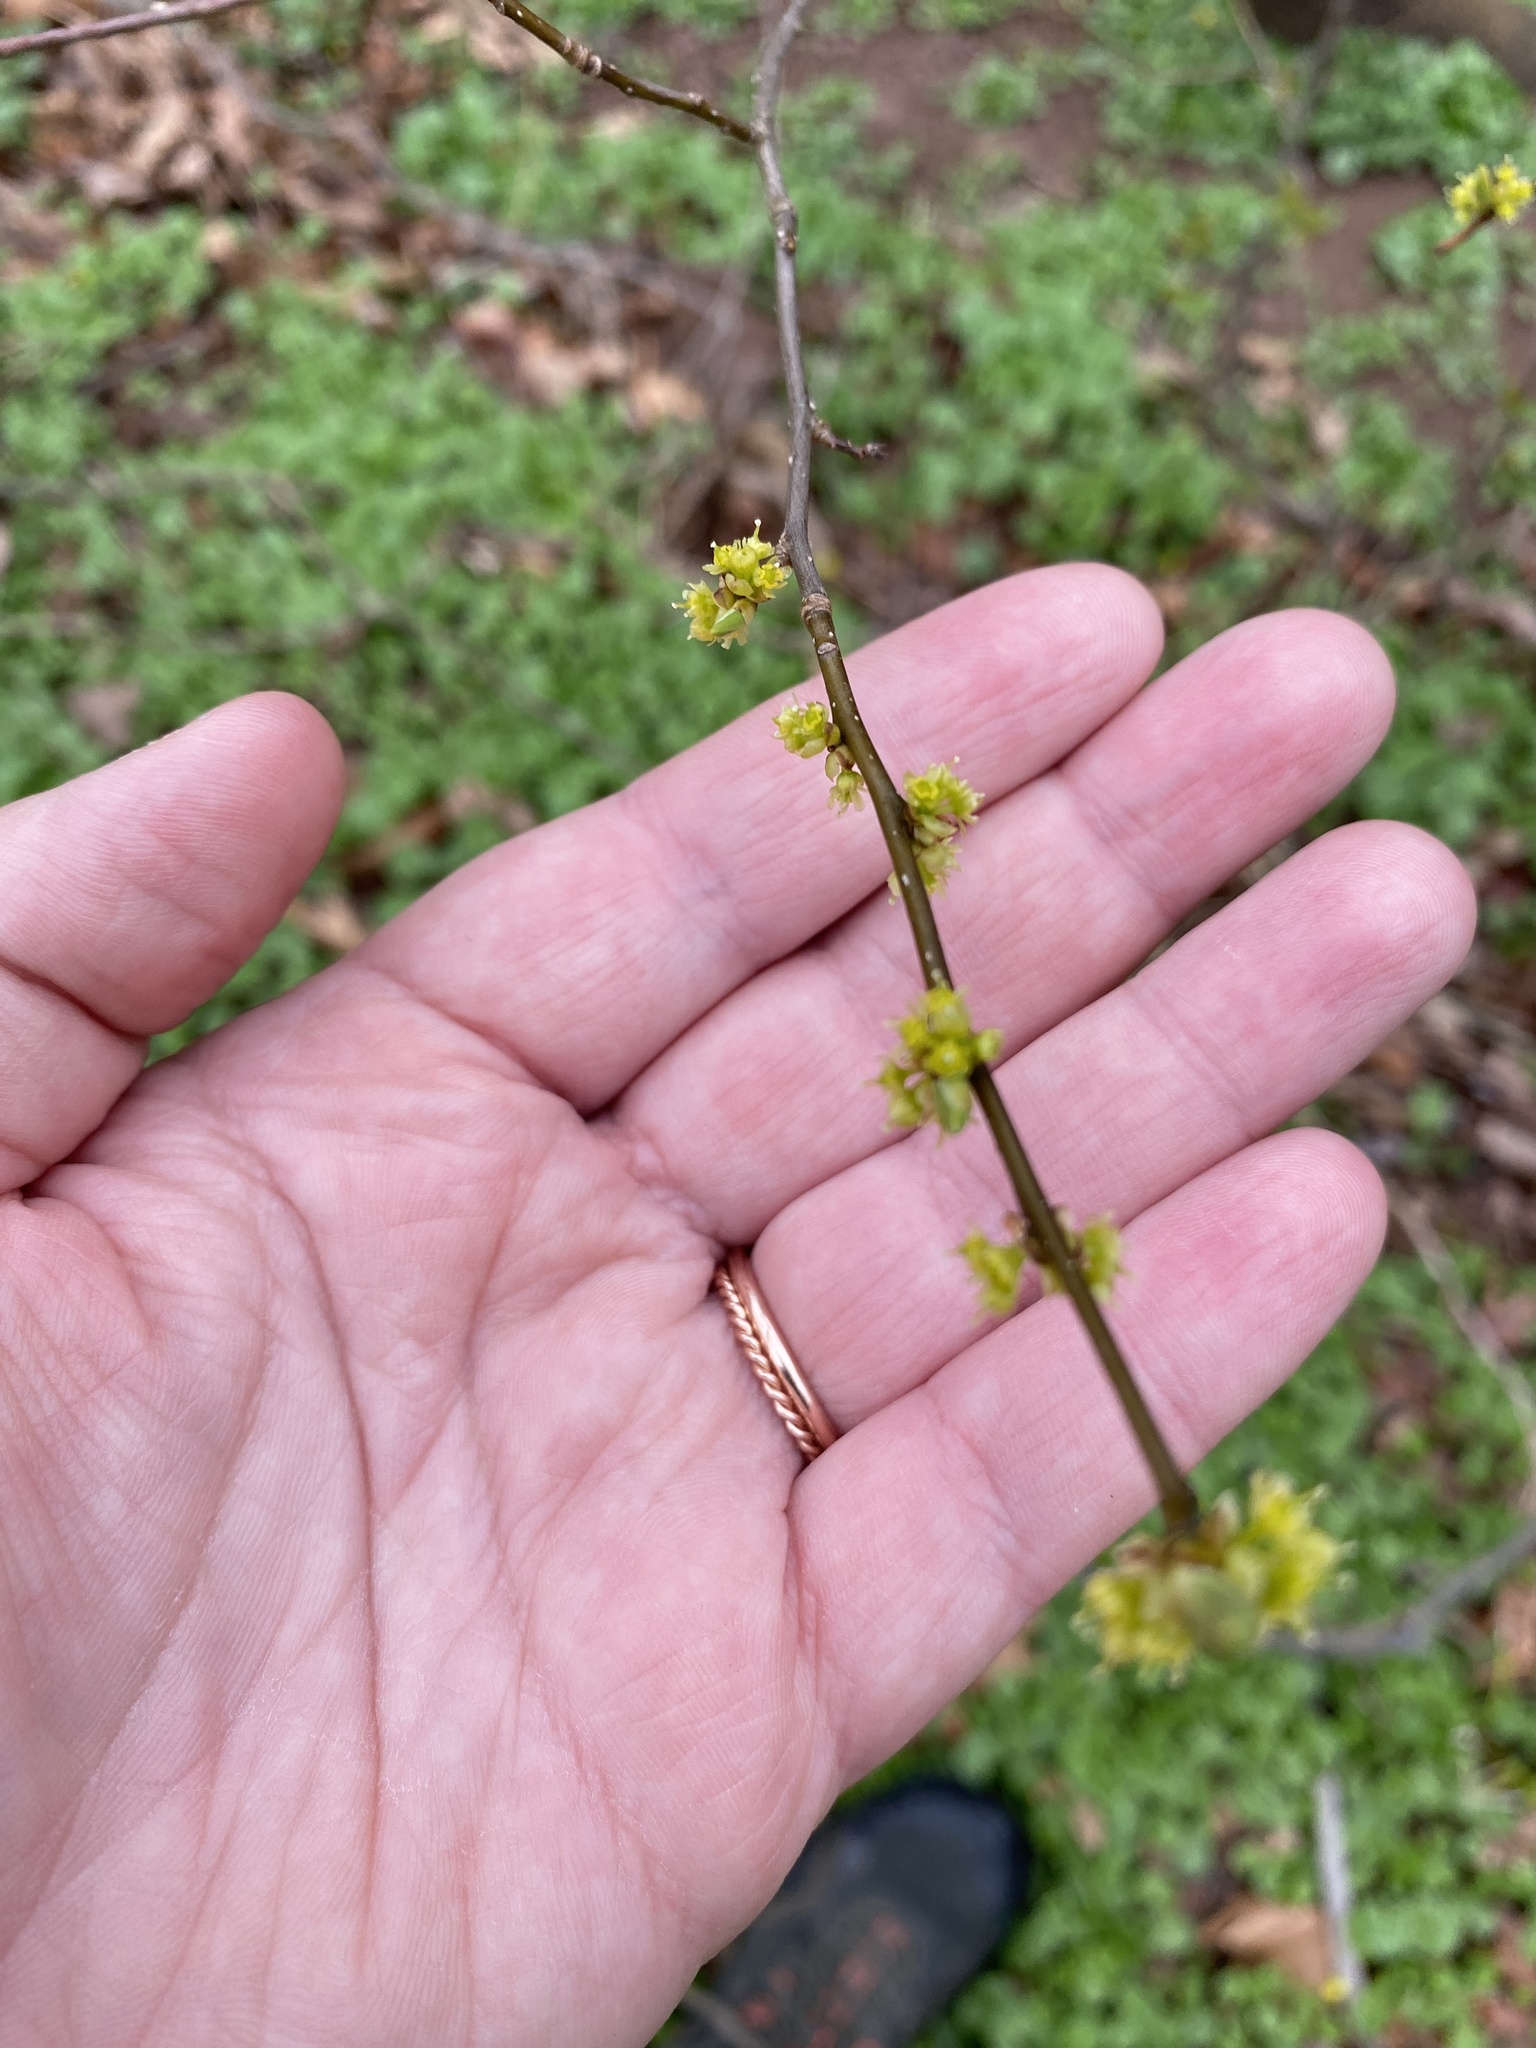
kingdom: Plantae
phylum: Tracheophyta
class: Magnoliopsida
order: Laurales
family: Lauraceae
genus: Lindera
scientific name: Lindera benzoin
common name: Spicebush
